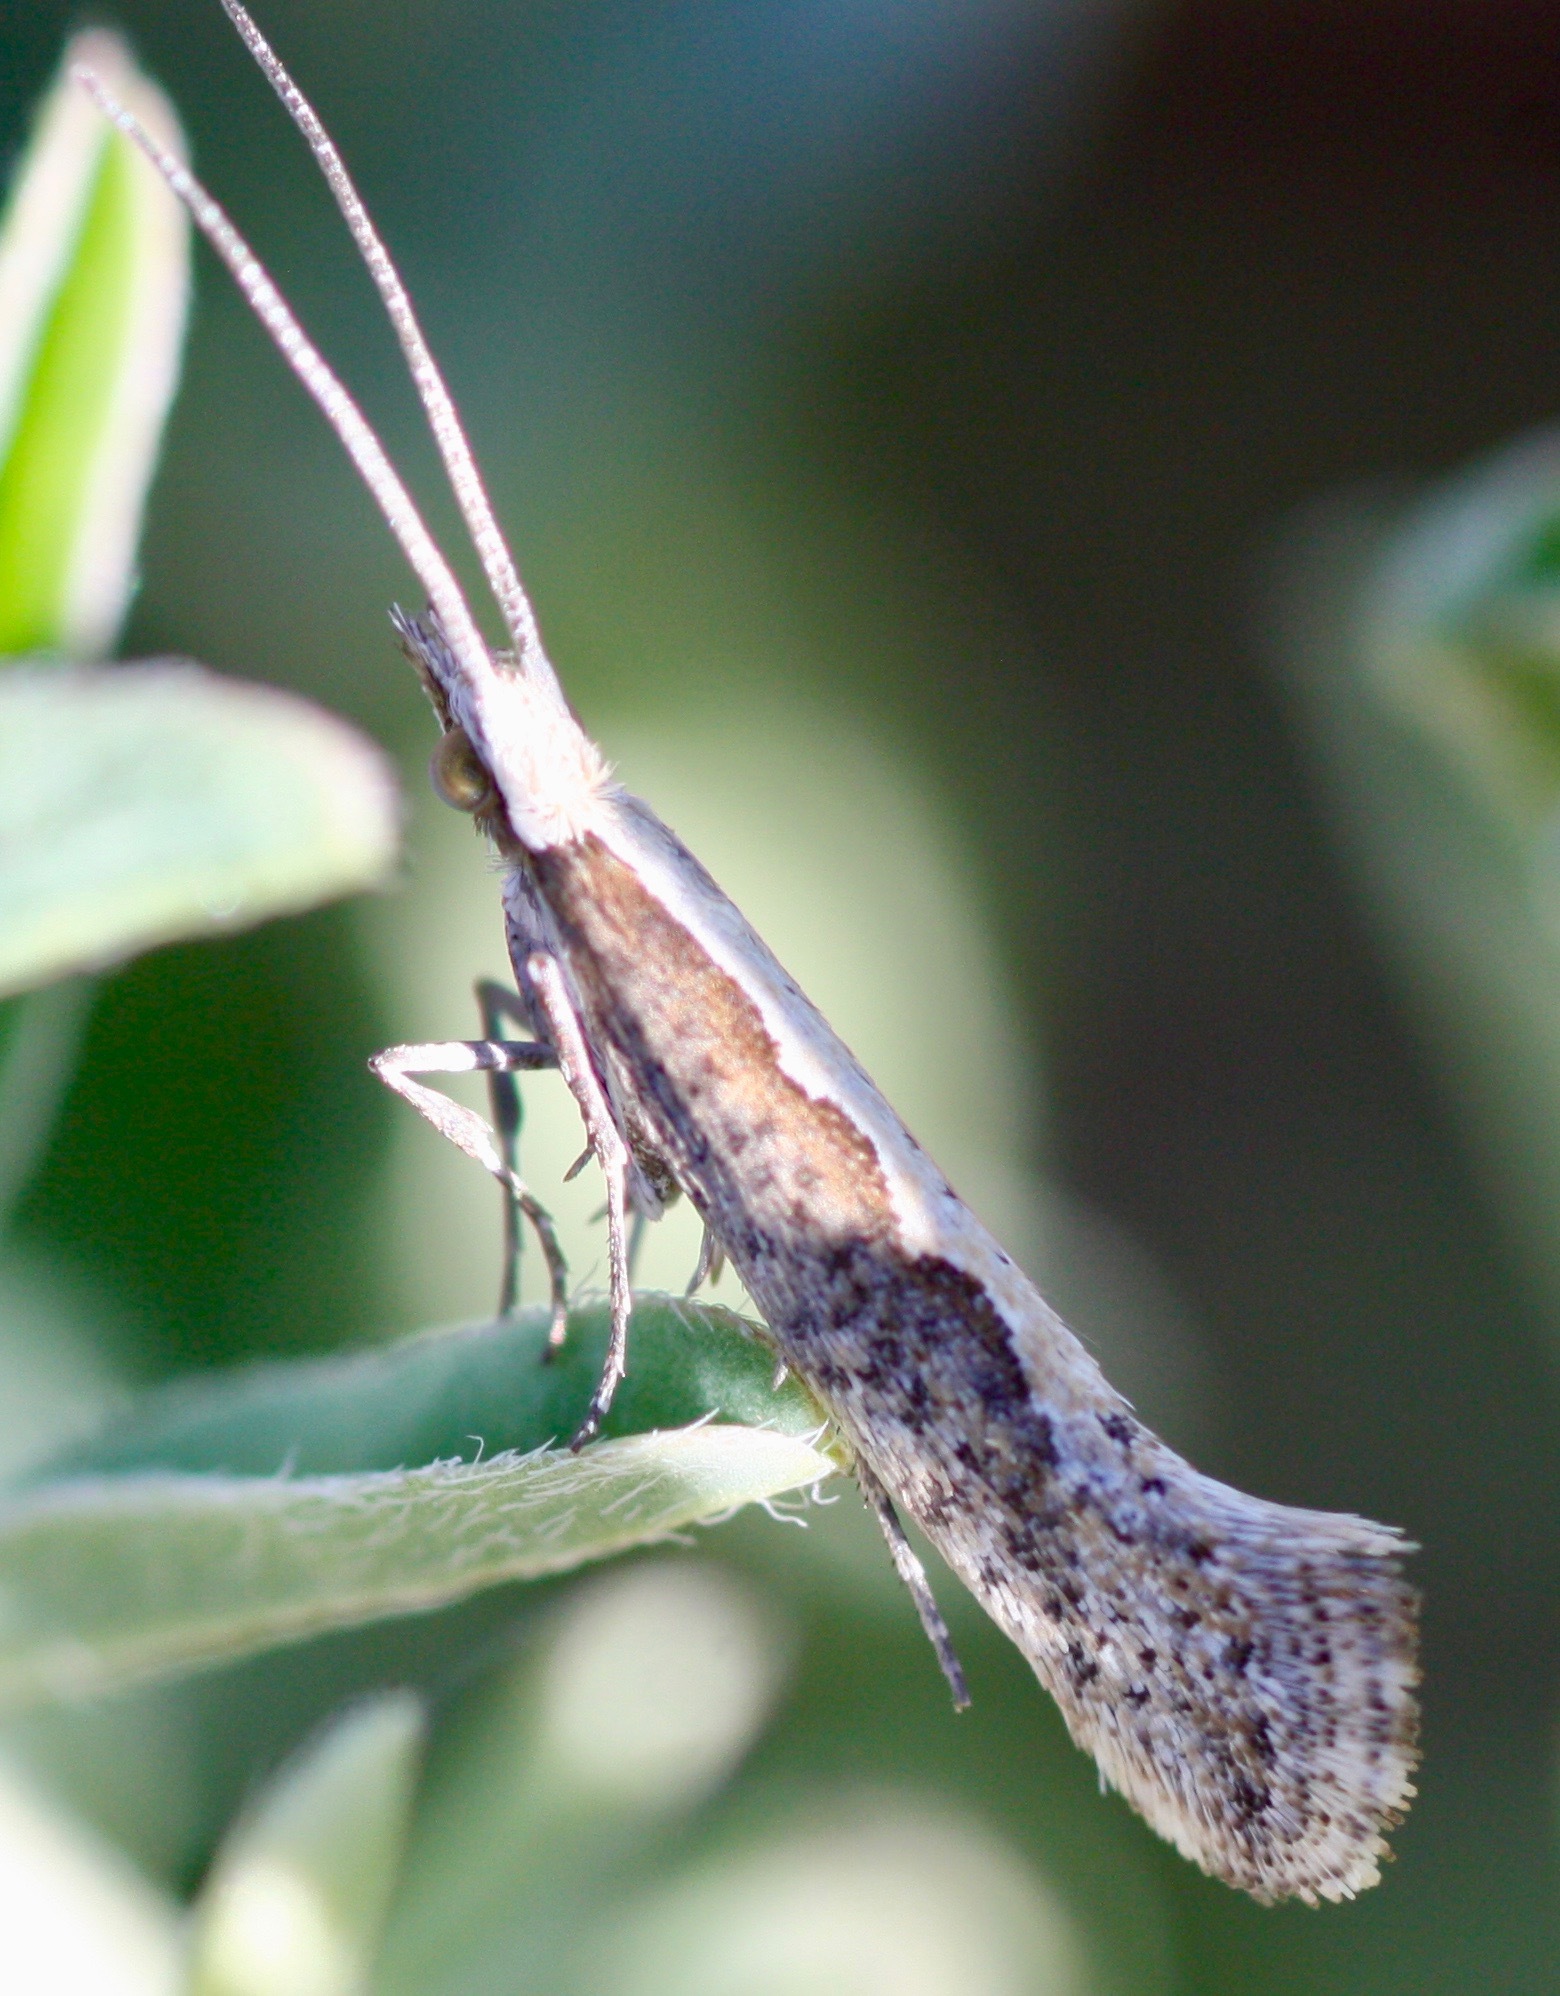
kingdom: Animalia
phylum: Arthropoda
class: Insecta
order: Lepidoptera
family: Plutellidae
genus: Plutella
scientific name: Plutella xylostella
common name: Diamond-back moth
